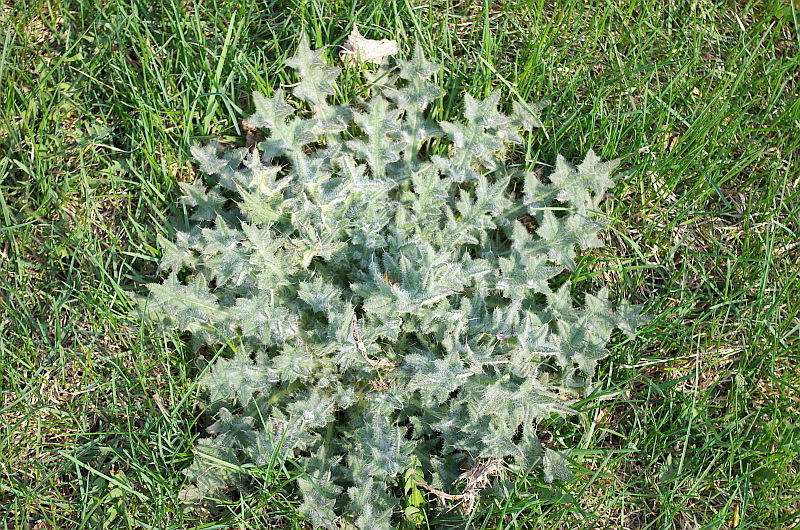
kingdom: Plantae
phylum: Tracheophyta
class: Magnoliopsida
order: Asterales
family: Asteraceae
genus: Cirsium
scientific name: Cirsium vulgare
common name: Bull thistle
